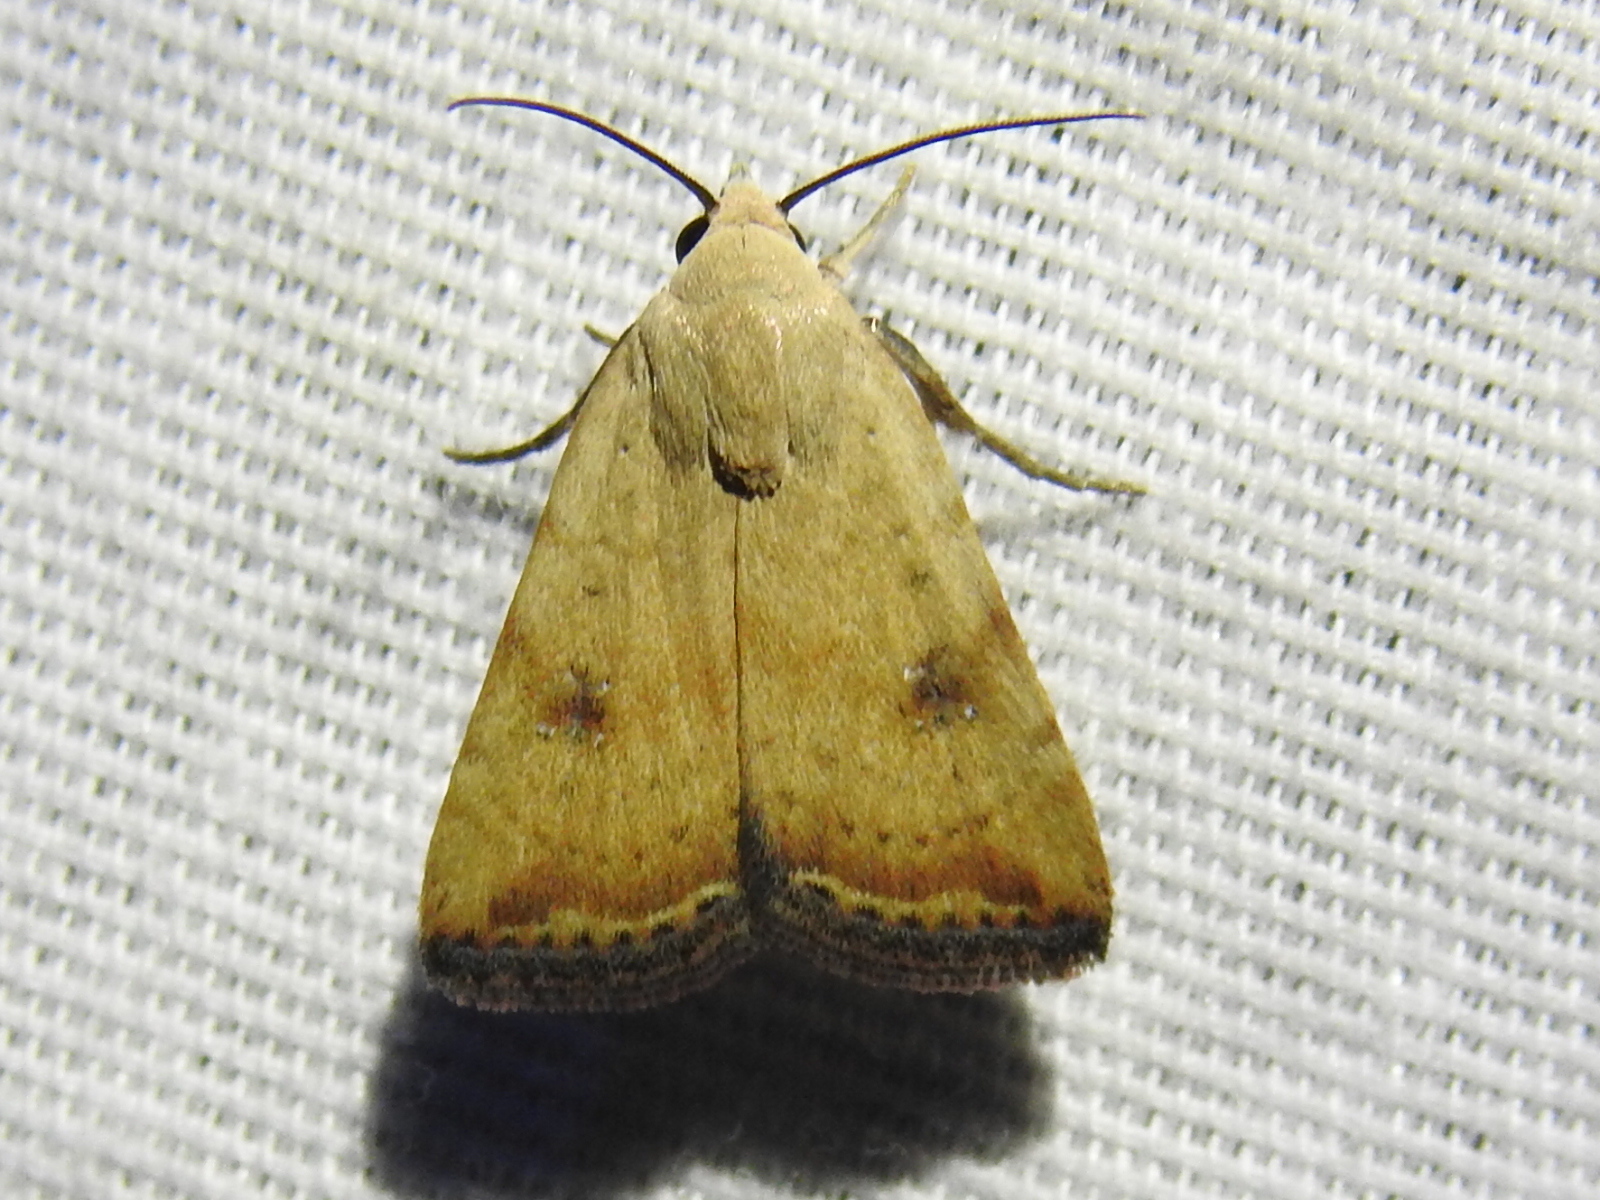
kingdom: Animalia
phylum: Arthropoda
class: Insecta
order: Lepidoptera
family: Noctuidae
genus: Micrathetis
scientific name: Micrathetis triplex
